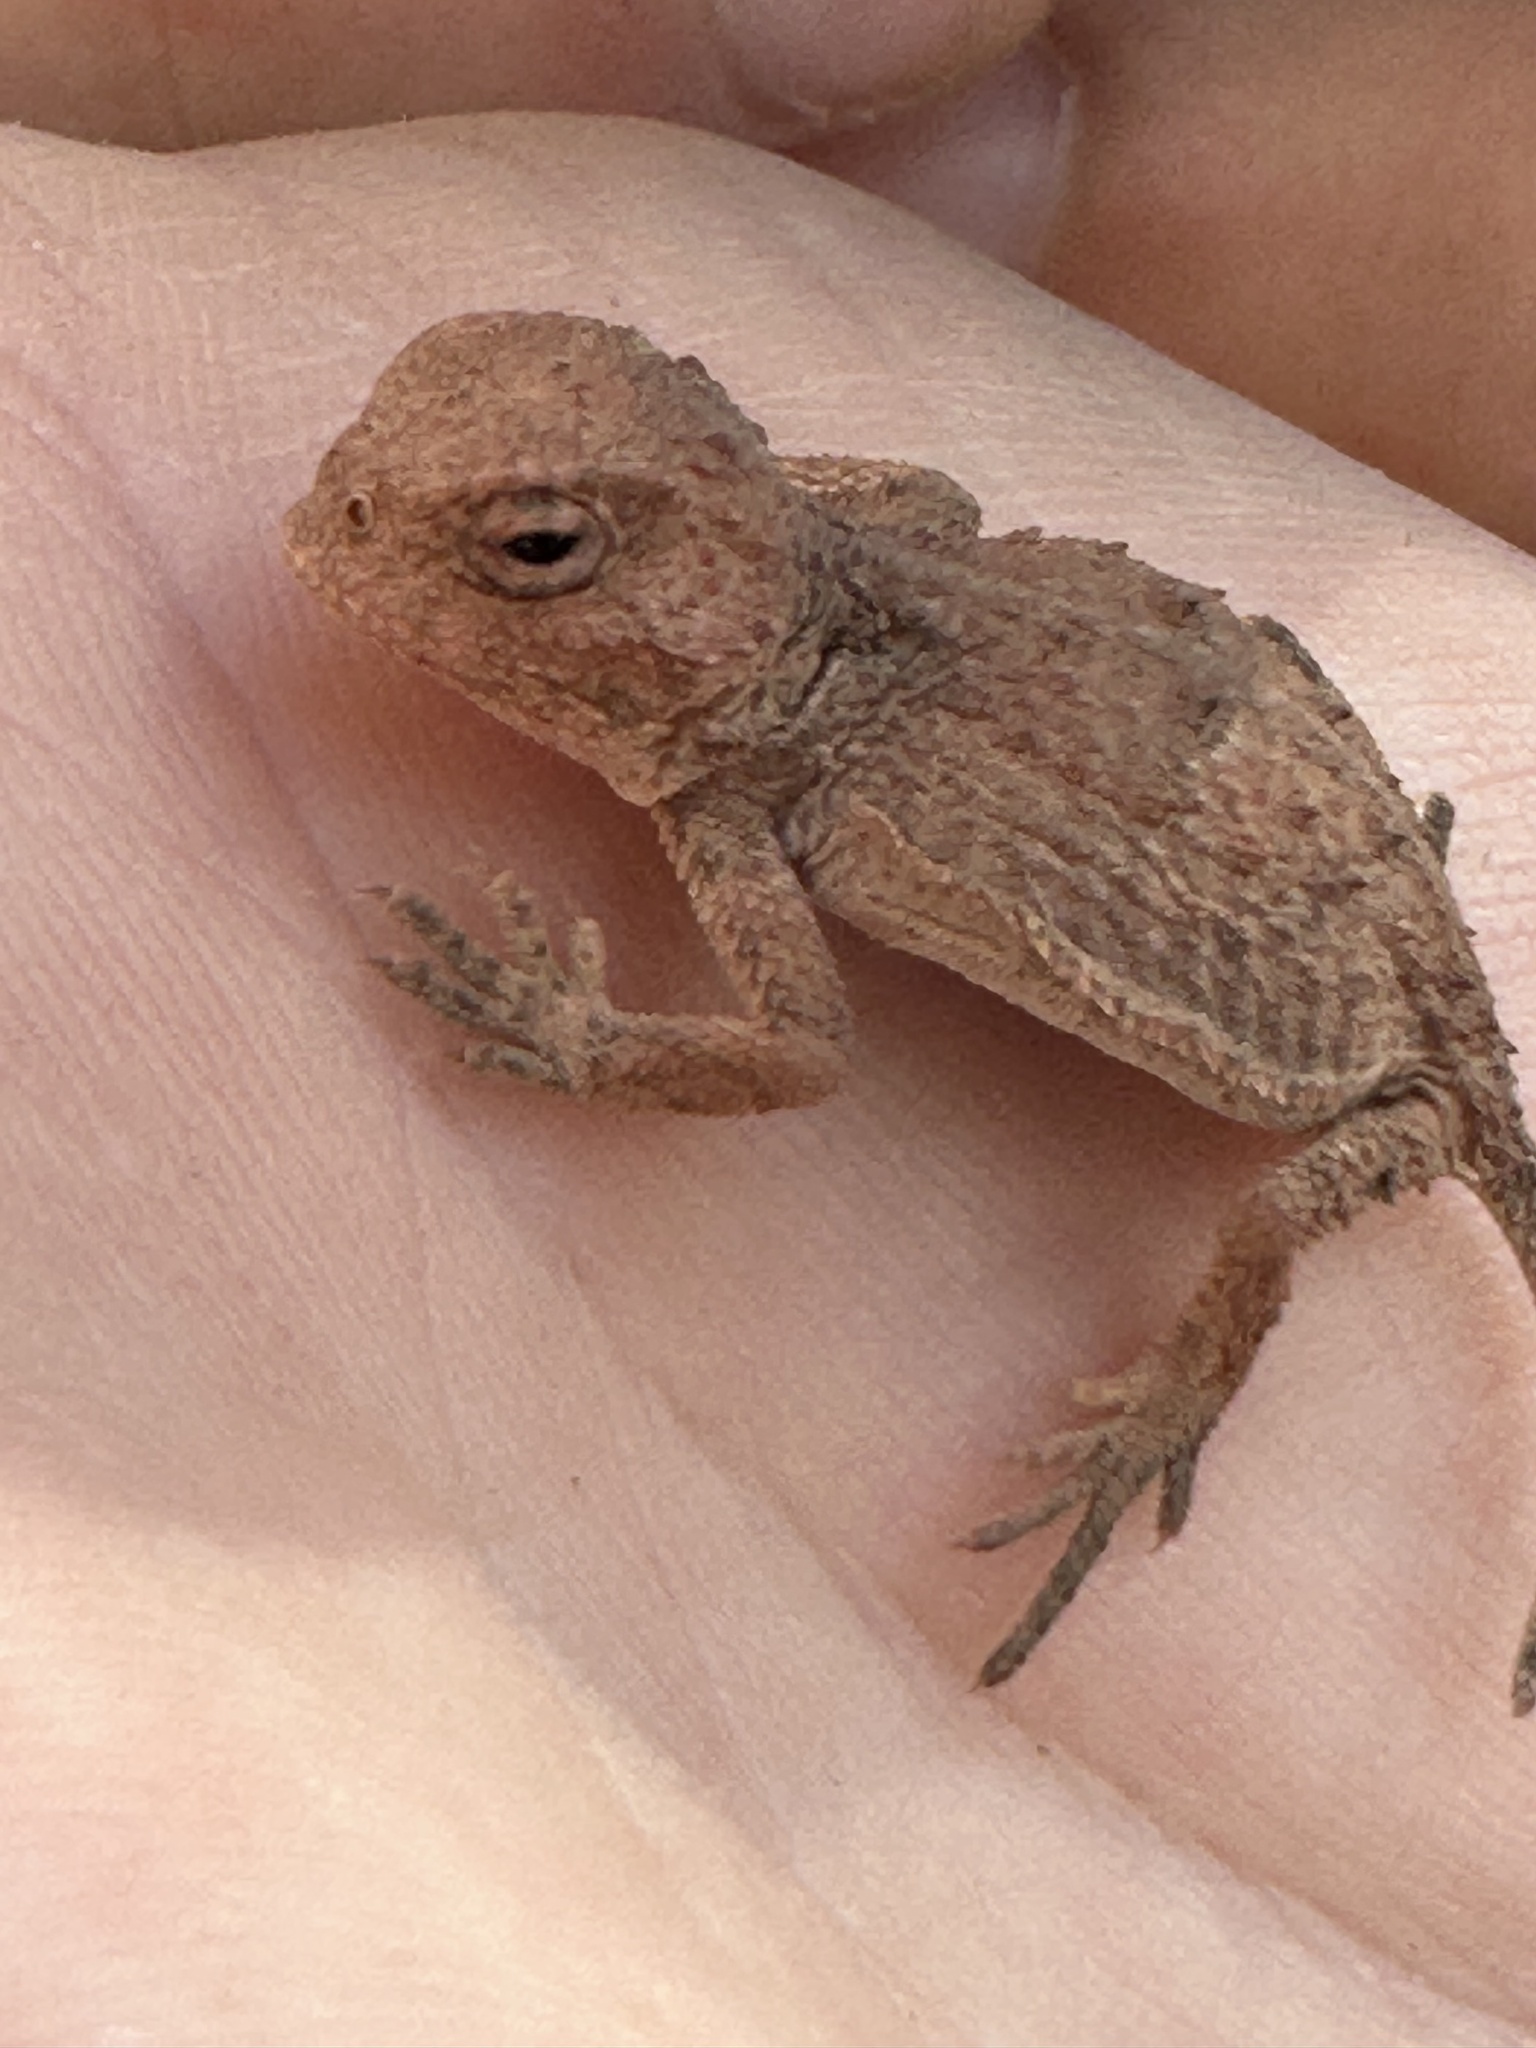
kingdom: Animalia
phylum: Chordata
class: Squamata
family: Phrynosomatidae
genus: Phrynosoma
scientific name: Phrynosoma hernandesi
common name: Greater short-horned lizard
